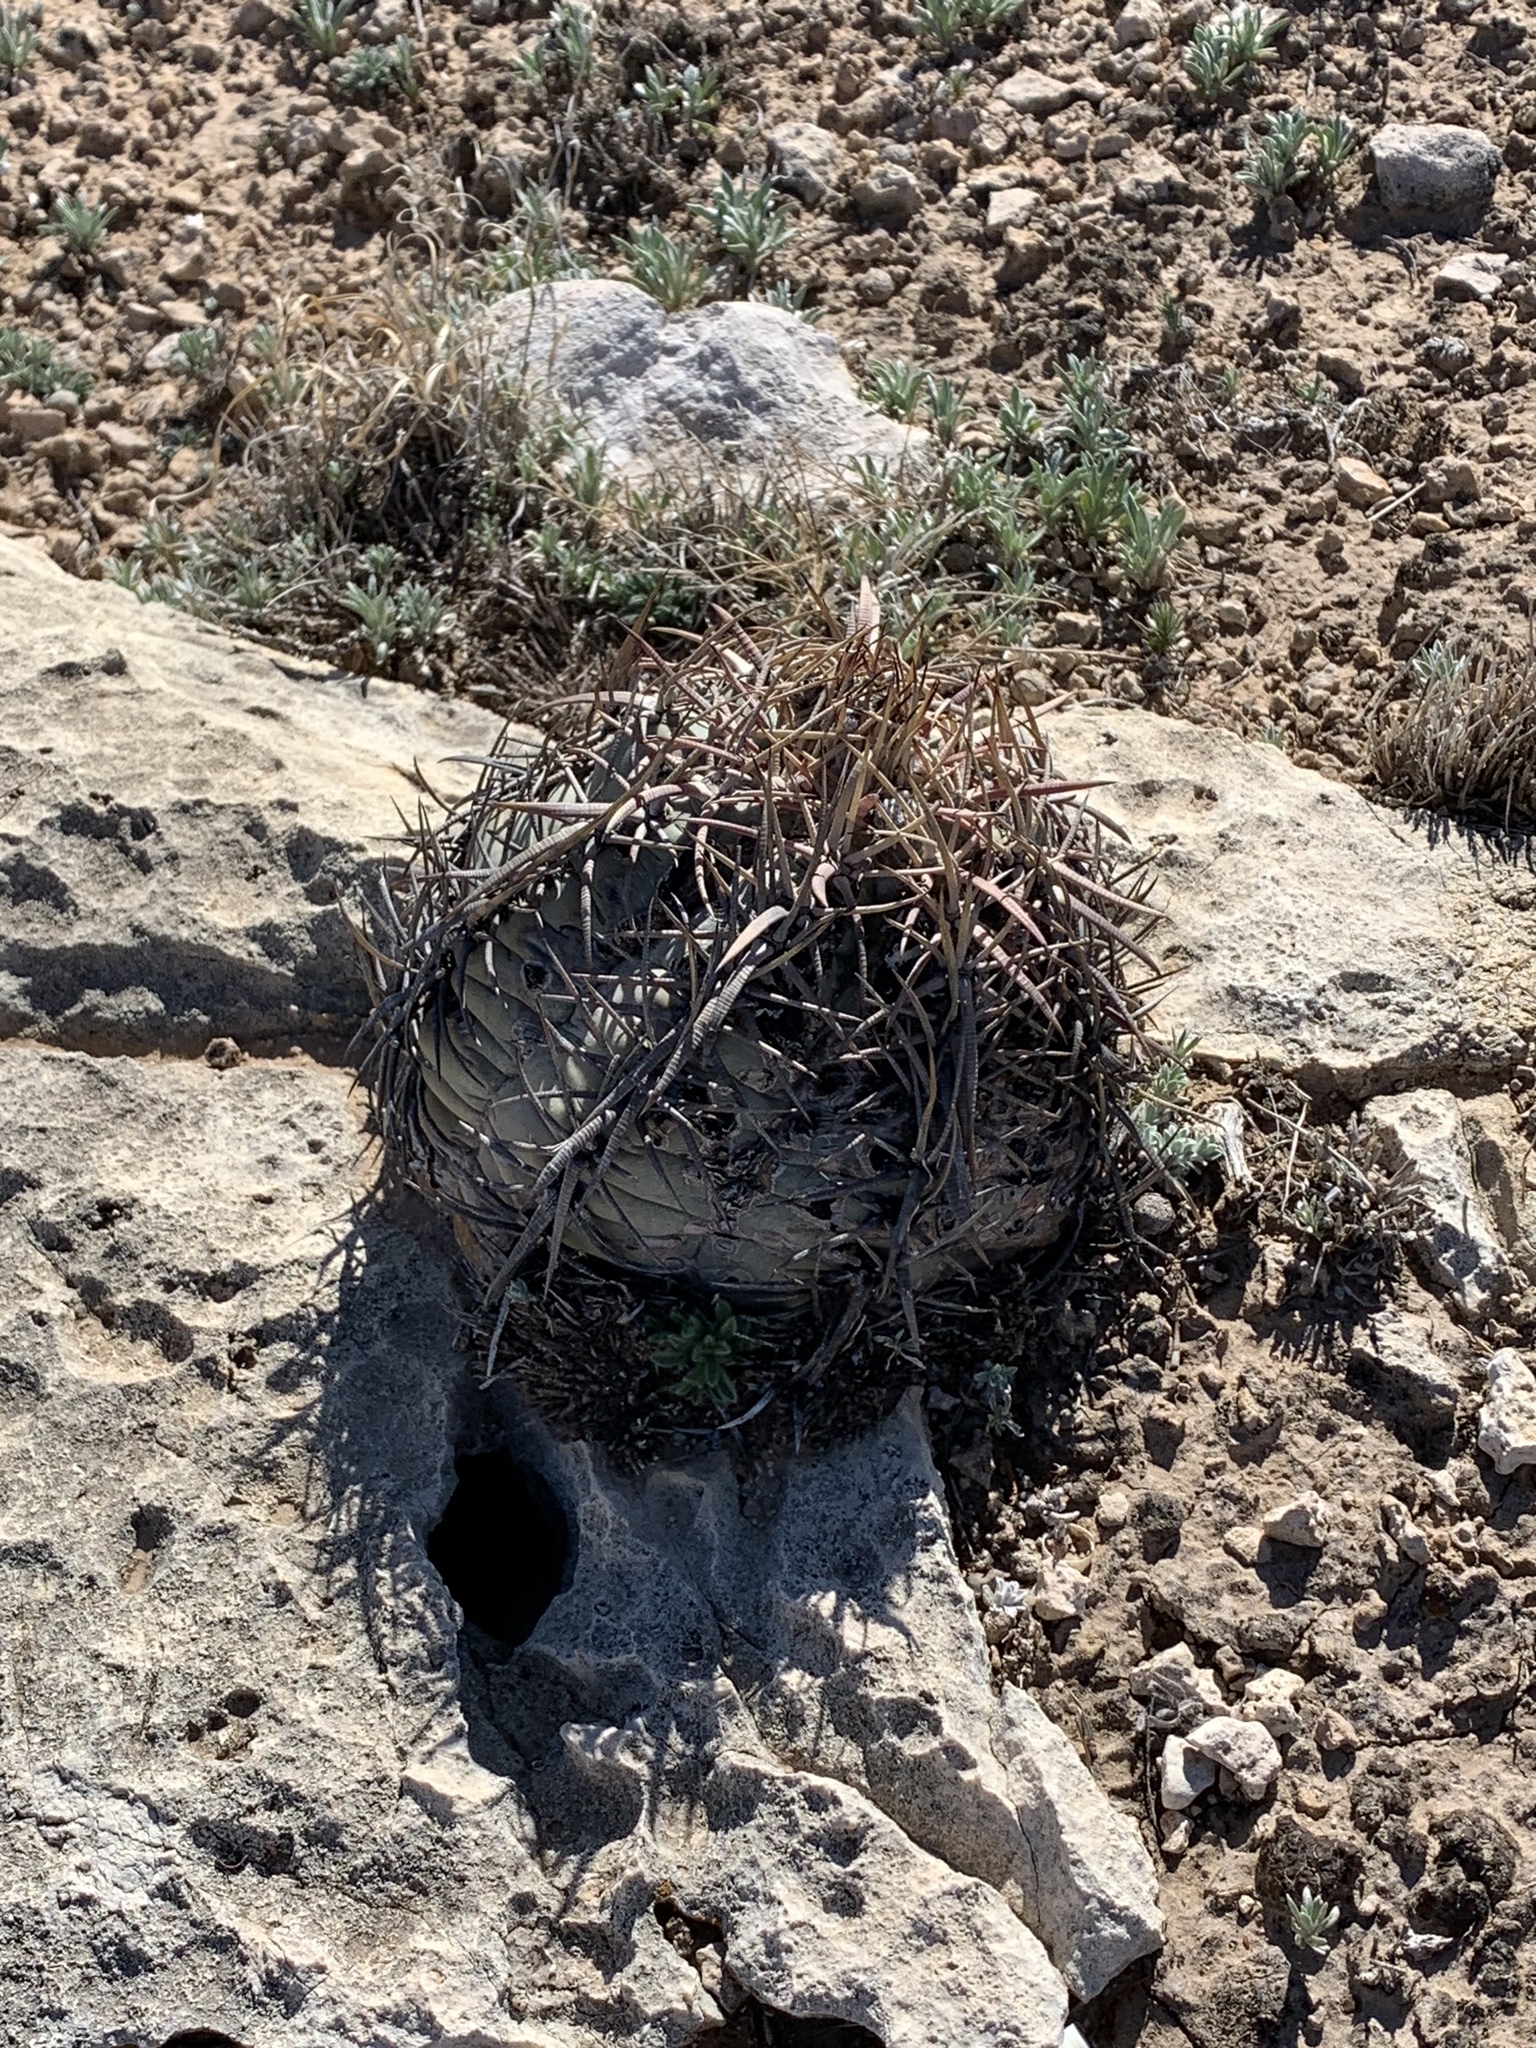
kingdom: Plantae
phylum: Tracheophyta
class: Magnoliopsida
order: Caryophyllales
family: Cactaceae
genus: Echinocactus
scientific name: Echinocactus horizonthalonius
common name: Devilshead
